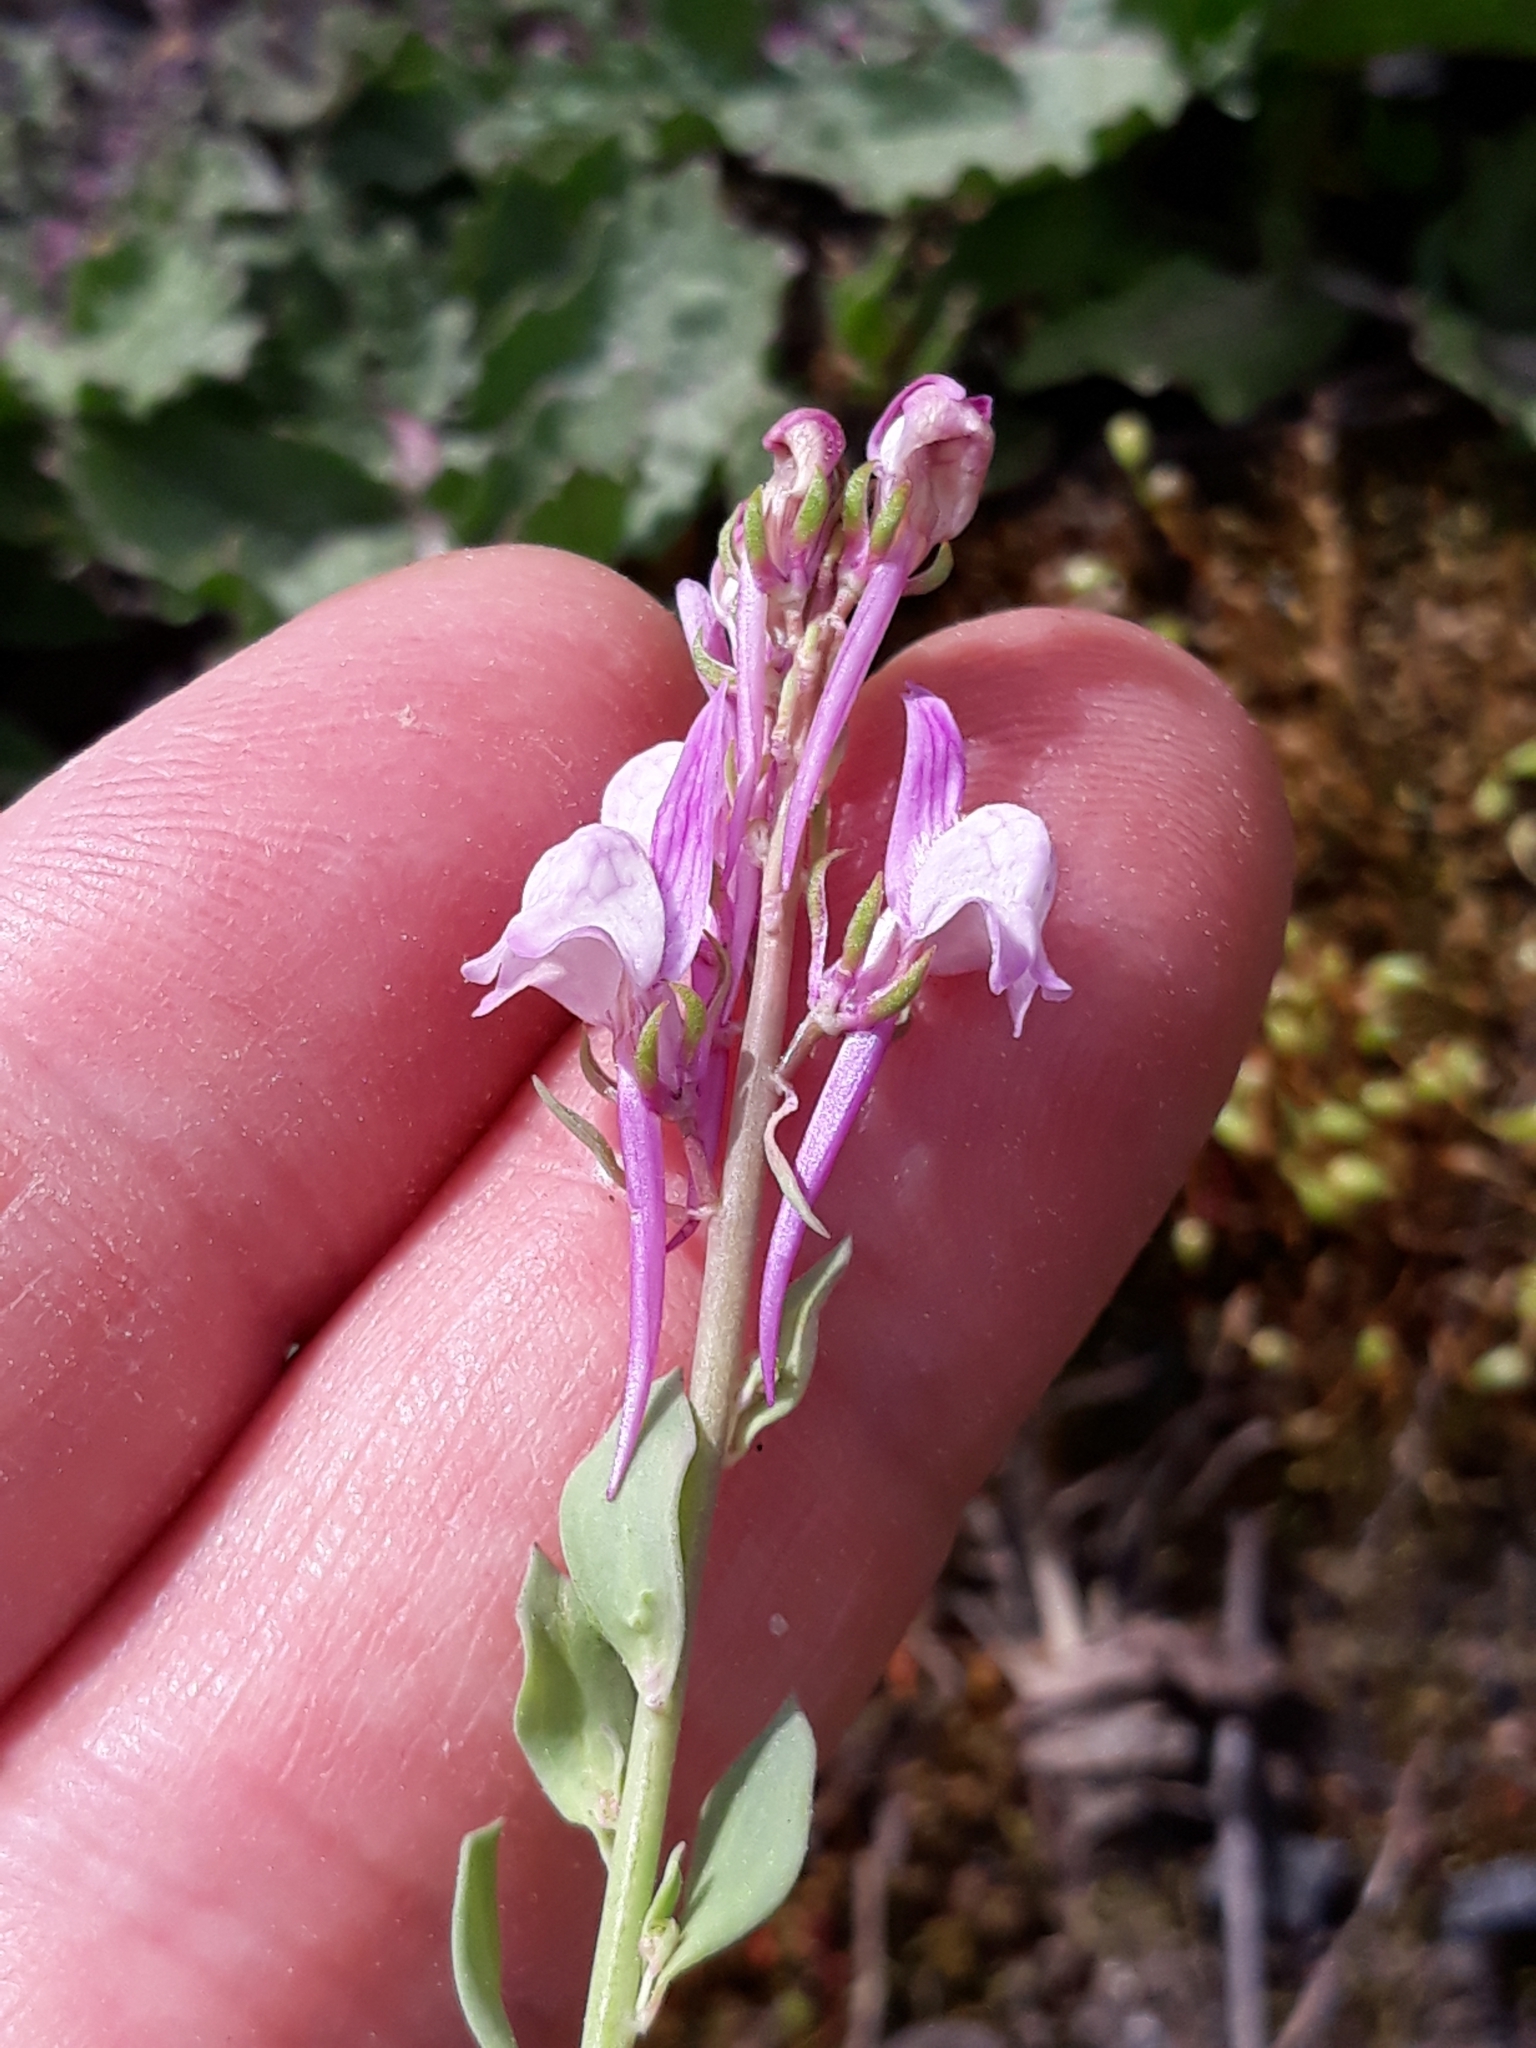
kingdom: Plantae
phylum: Tracheophyta
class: Magnoliopsida
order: Lamiales
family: Plantaginaceae
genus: Linaria
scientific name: Linaria virgata
